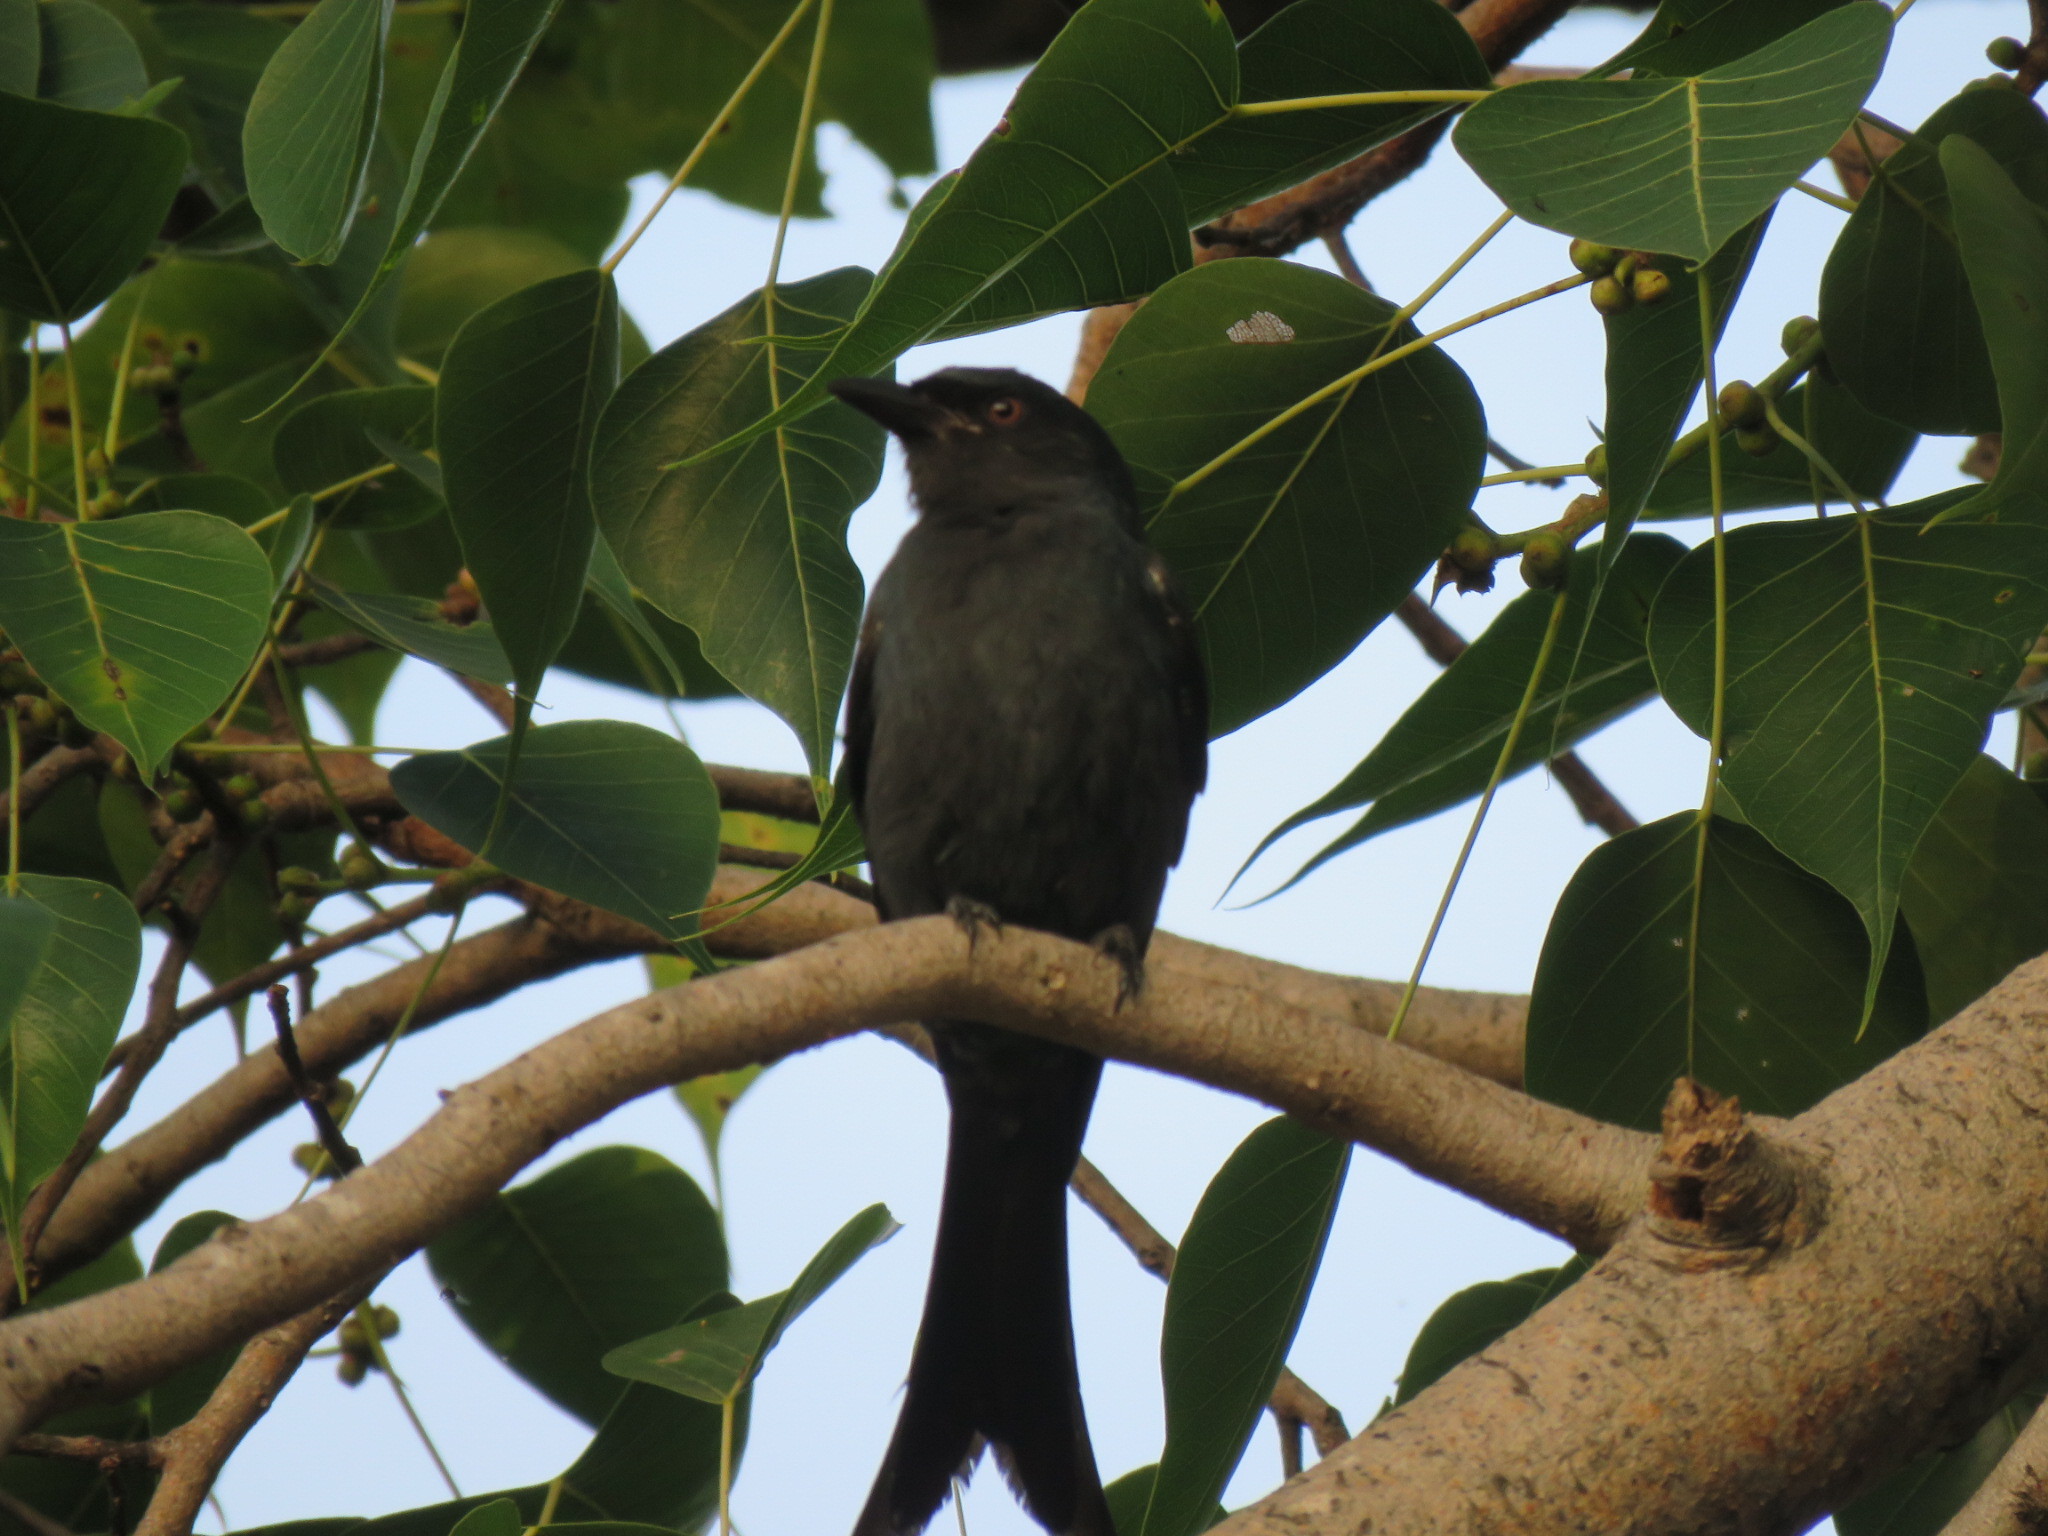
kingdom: Animalia
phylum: Chordata
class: Aves
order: Passeriformes
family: Dicruridae
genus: Dicrurus
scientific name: Dicrurus leucophaeus
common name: Ashy drongo
